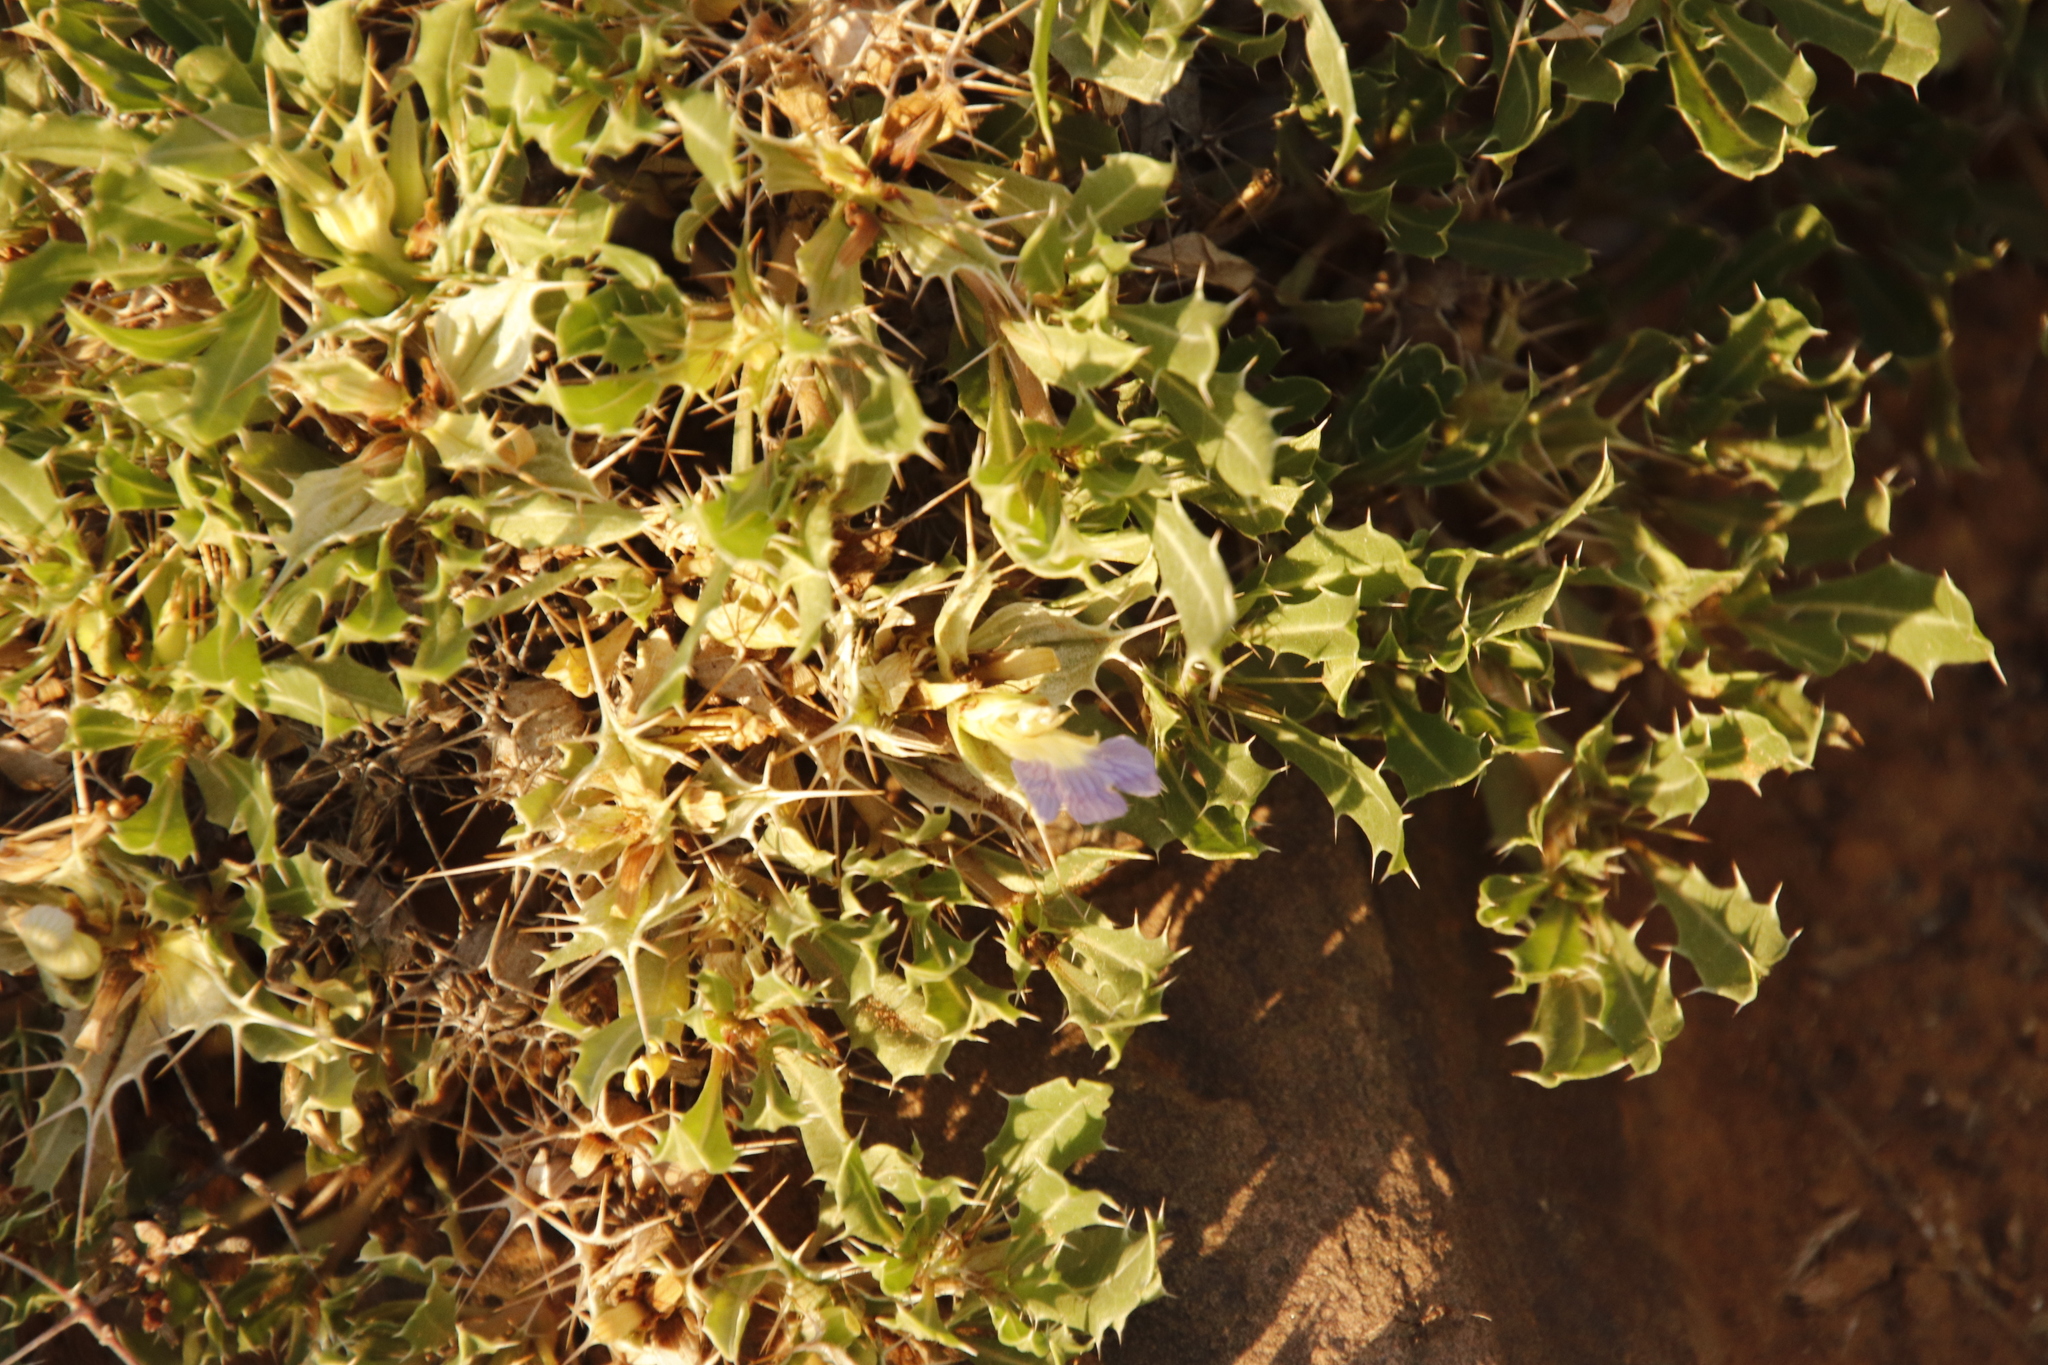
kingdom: Plantae
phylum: Tracheophyta
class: Magnoliopsida
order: Lamiales
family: Acanthaceae
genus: Blepharis
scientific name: Blepharis mitrata
